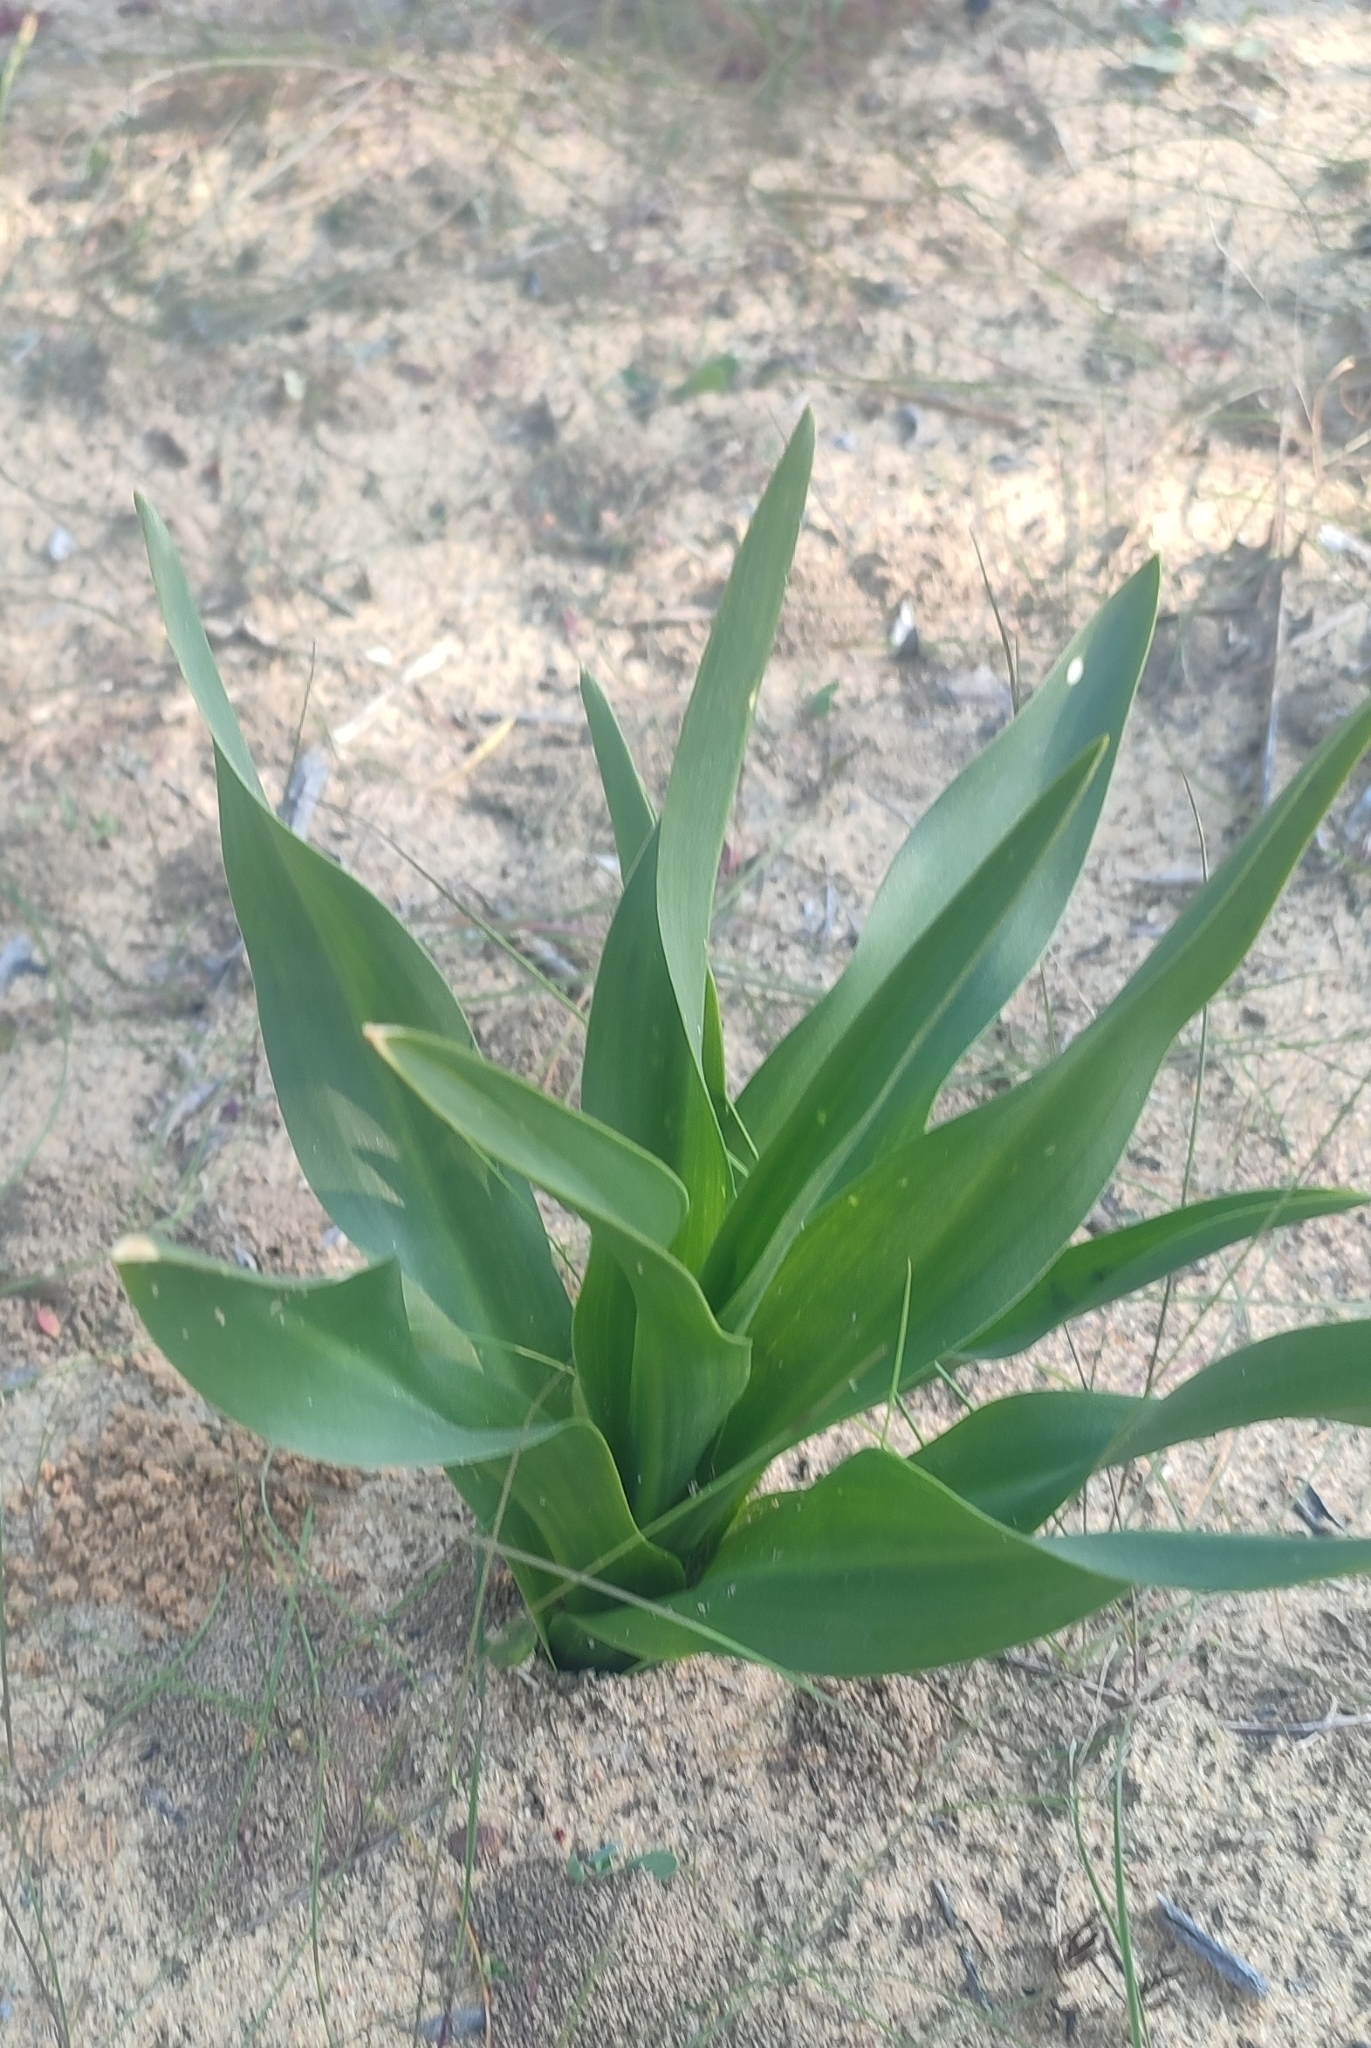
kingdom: Plantae
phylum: Tracheophyta
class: Liliopsida
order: Asparagales
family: Asparagaceae
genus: Drimia
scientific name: Drimia maritima
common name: Maritime squill
